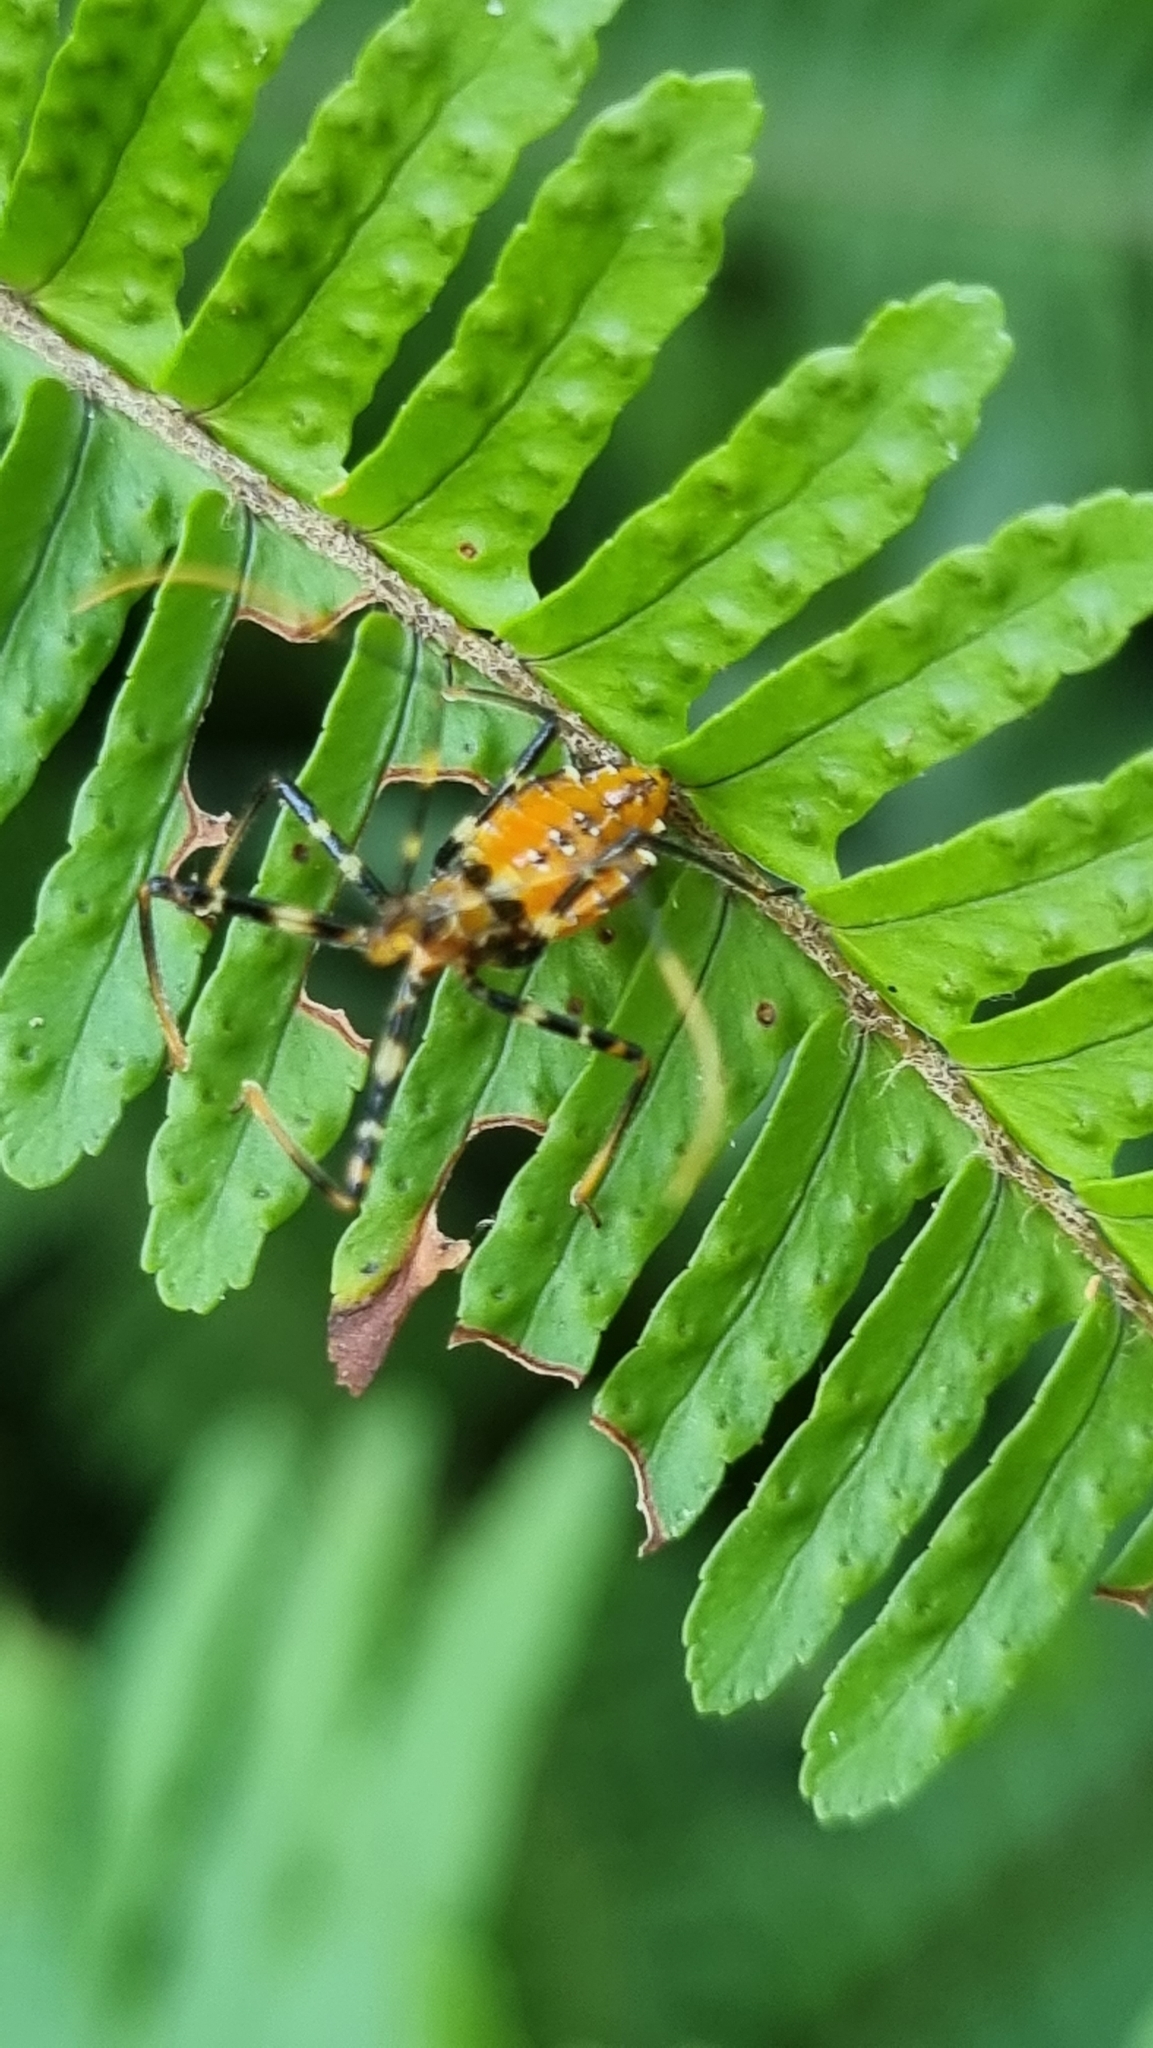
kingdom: Animalia
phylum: Arthropoda
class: Insecta
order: Hemiptera
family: Reduviidae
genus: Pristhesancus
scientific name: Pristhesancus plagipennis
